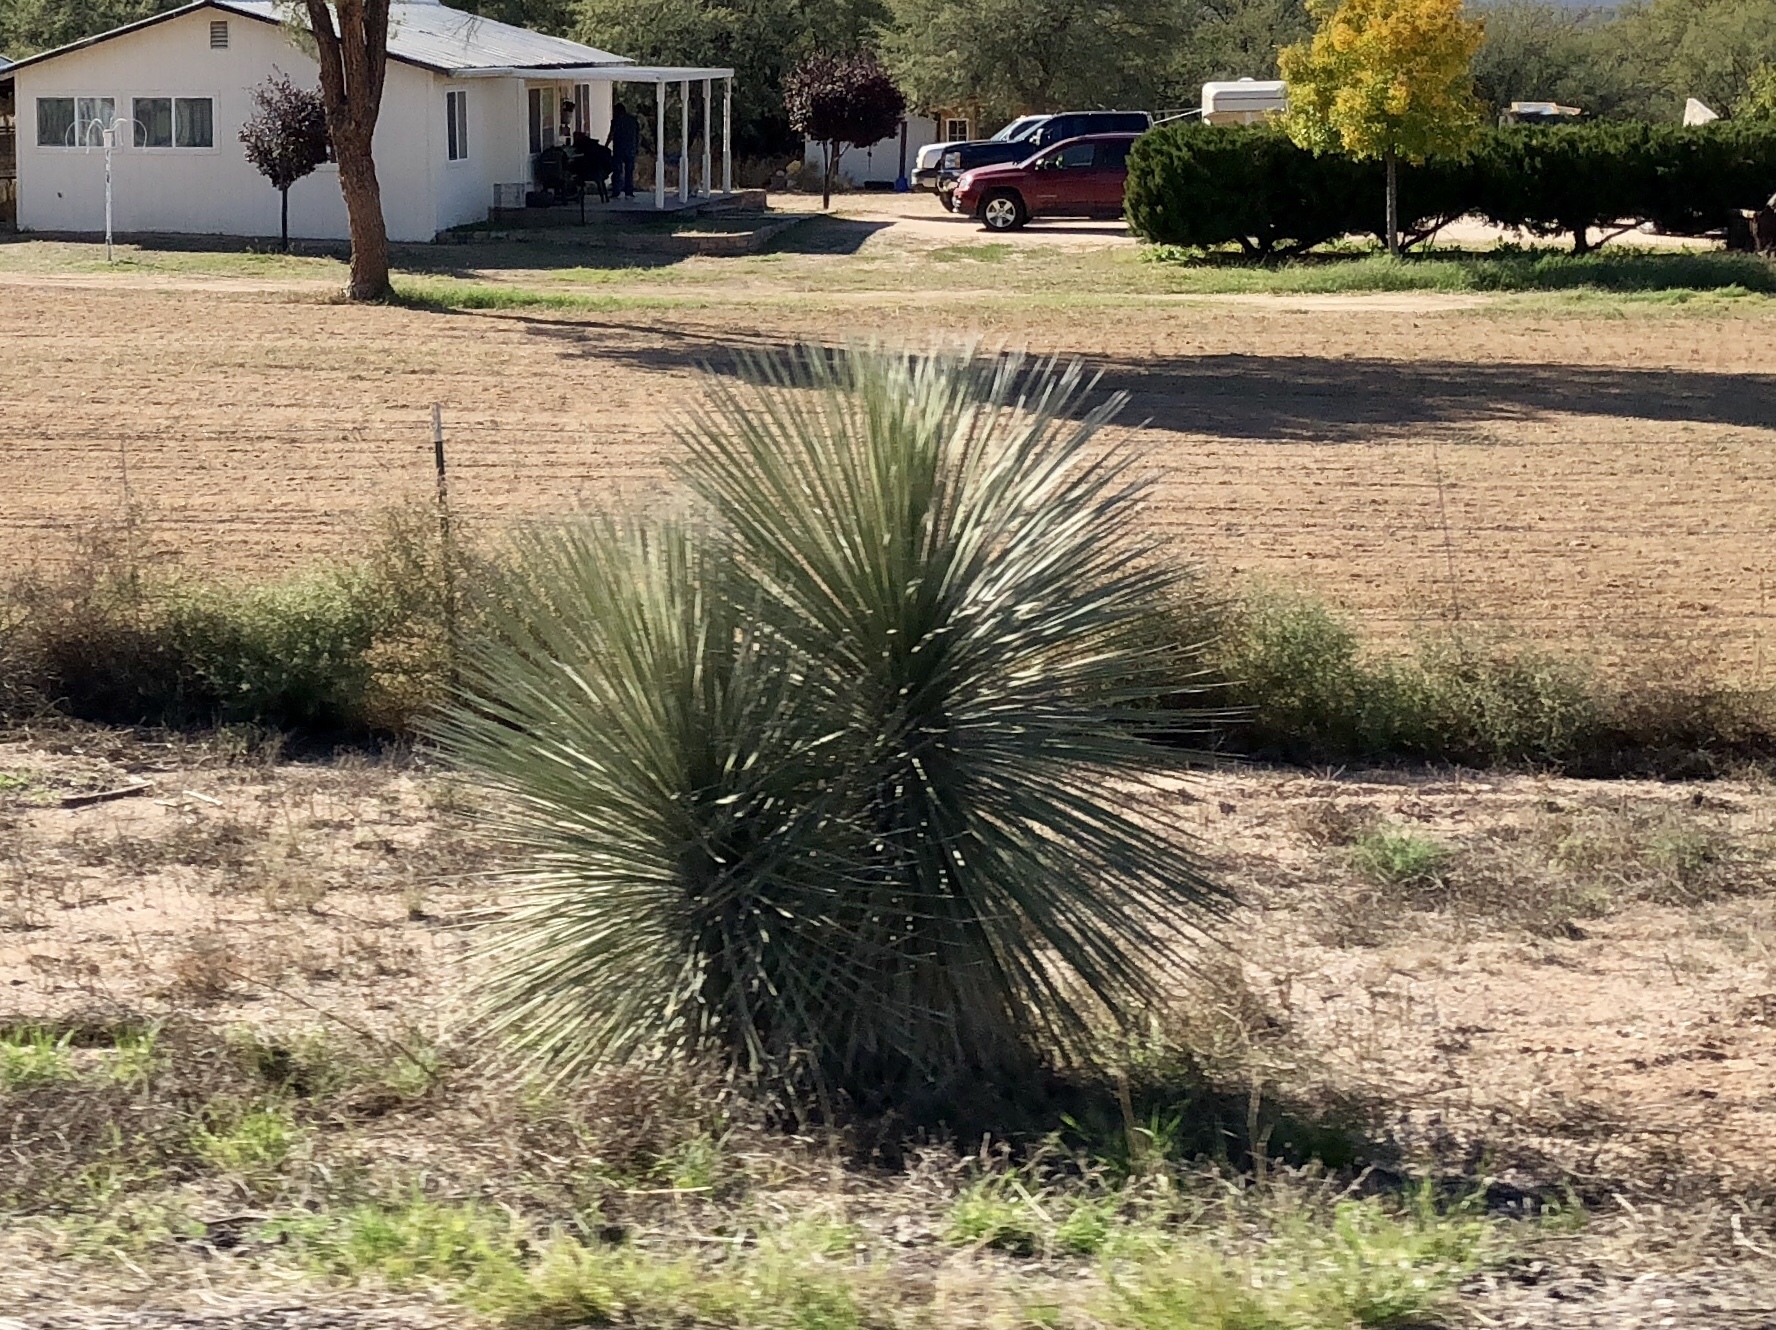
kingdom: Plantae
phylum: Tracheophyta
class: Liliopsida
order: Asparagales
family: Asparagaceae
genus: Yucca
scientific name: Yucca elata
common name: Palmella
